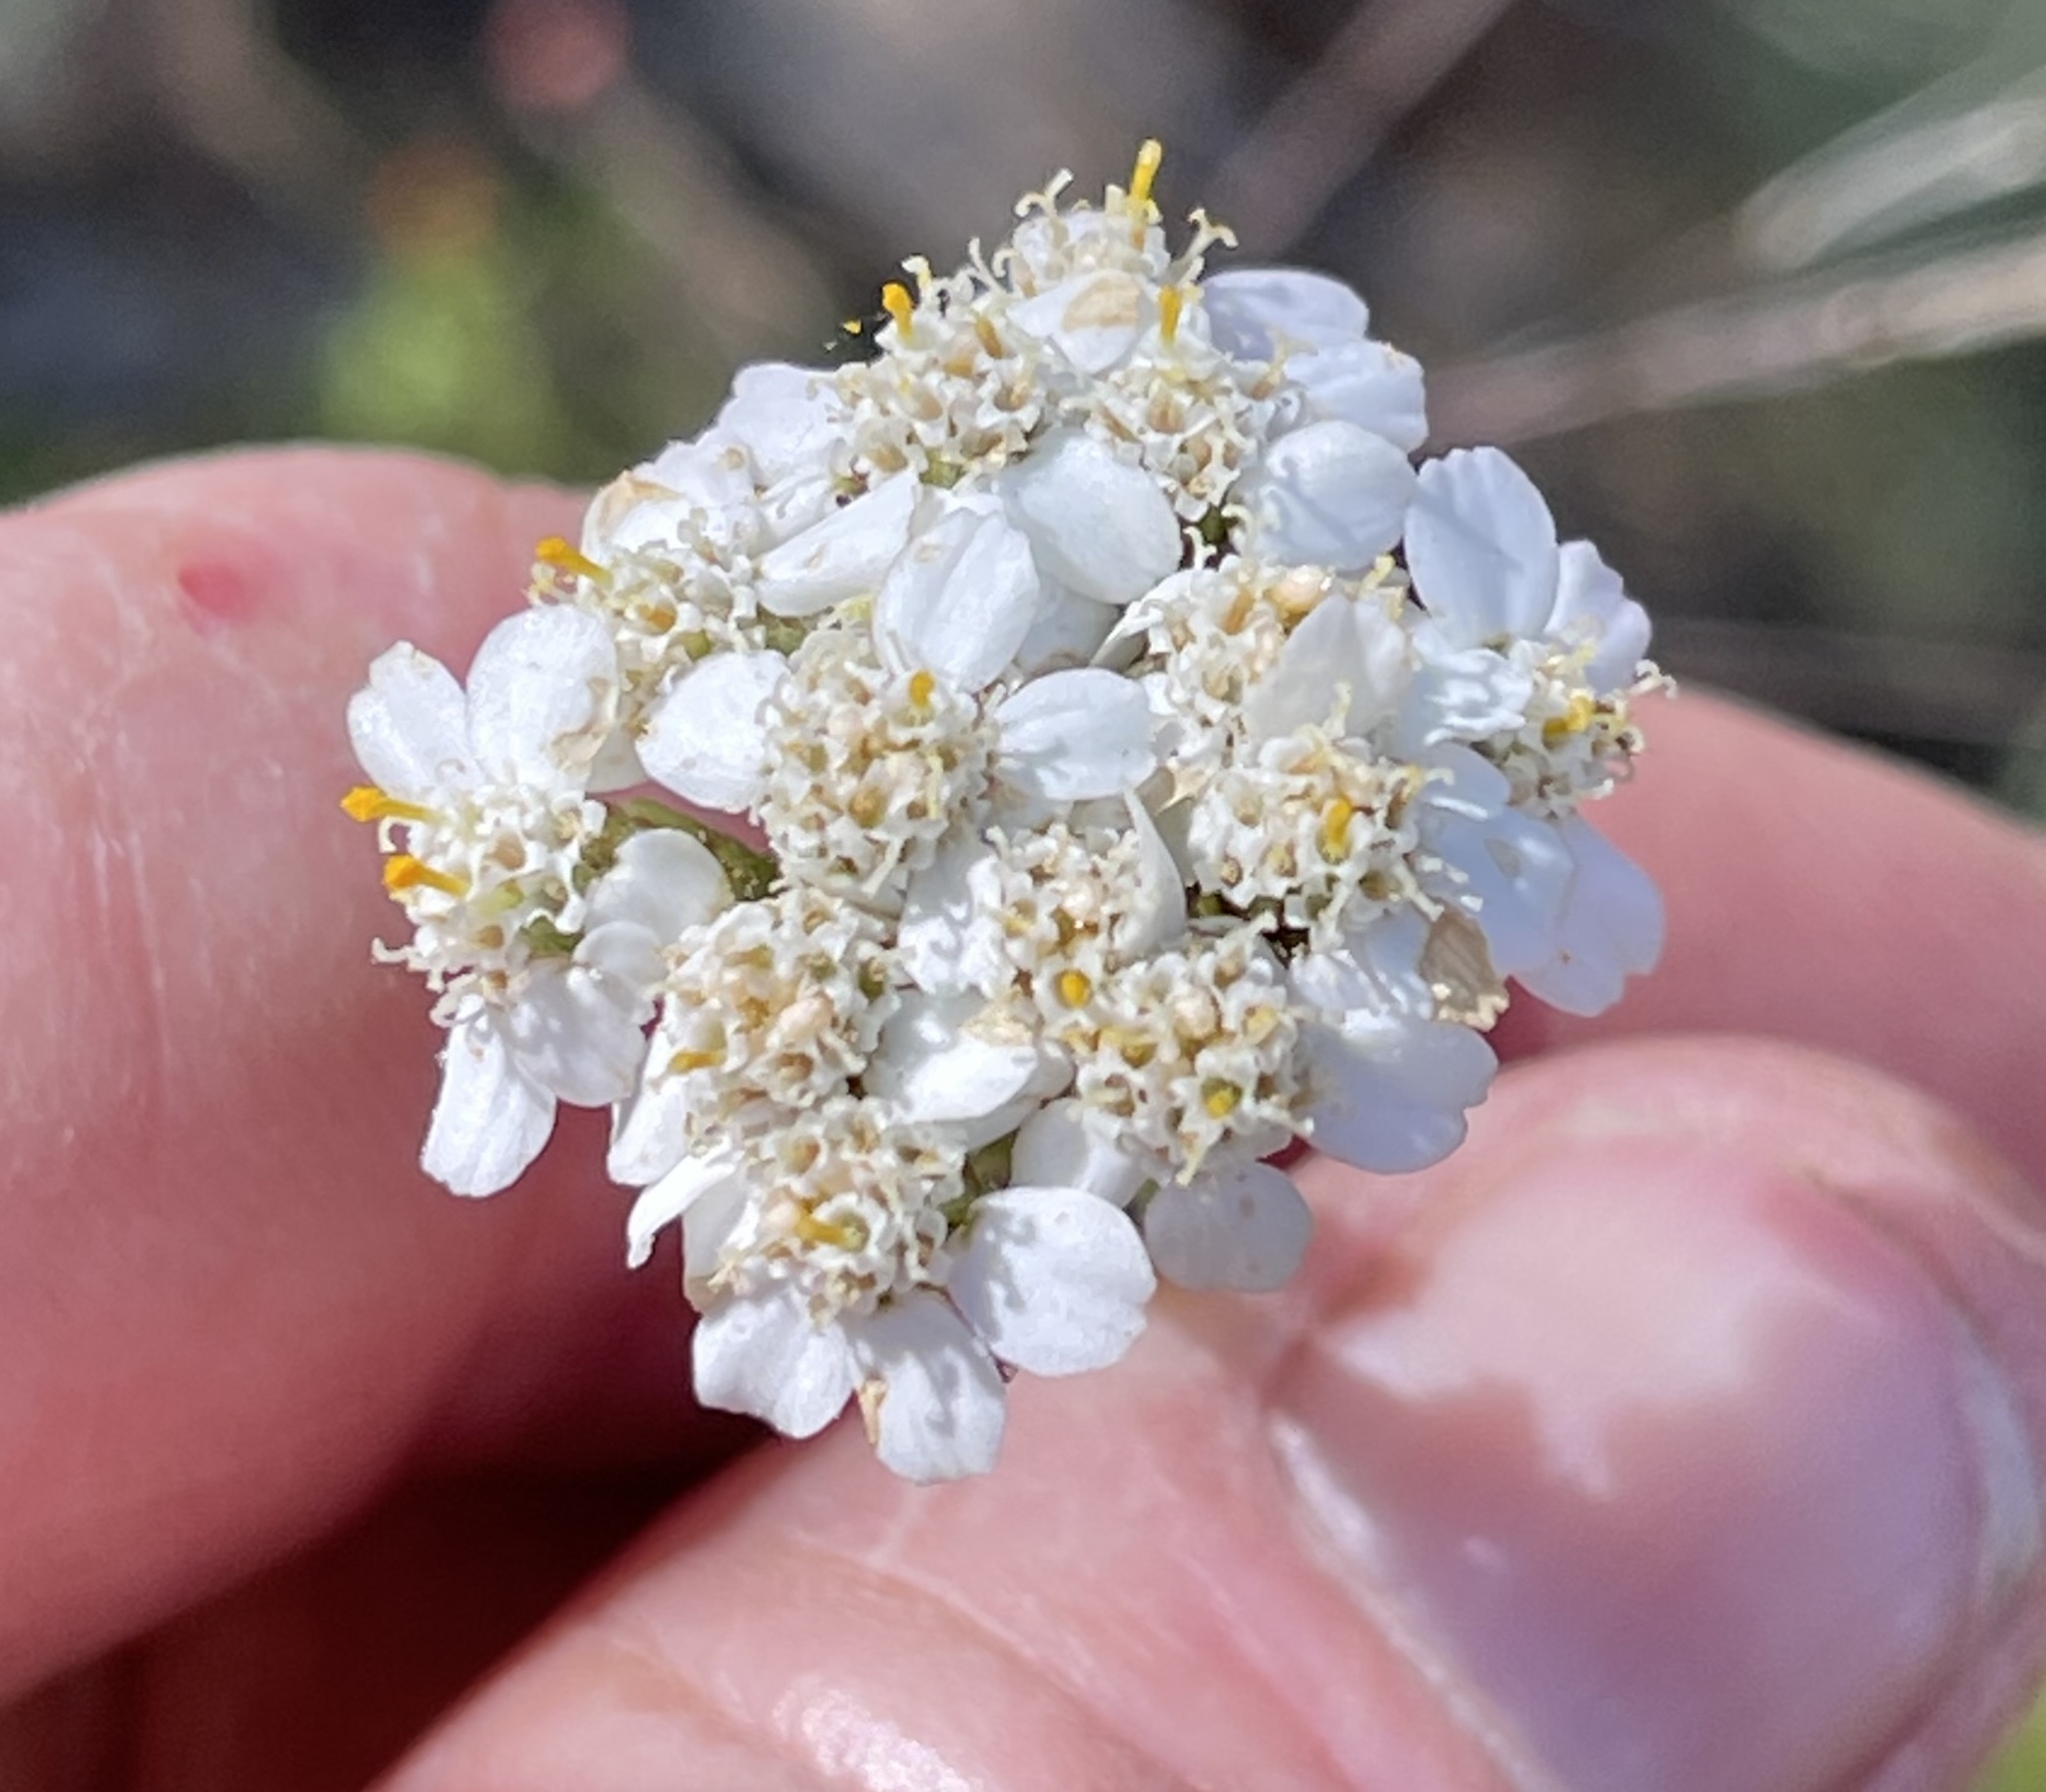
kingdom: Plantae
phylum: Tracheophyta
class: Magnoliopsida
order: Asterales
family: Asteraceae
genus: Achillea
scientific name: Achillea millefolium
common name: Yarrow
